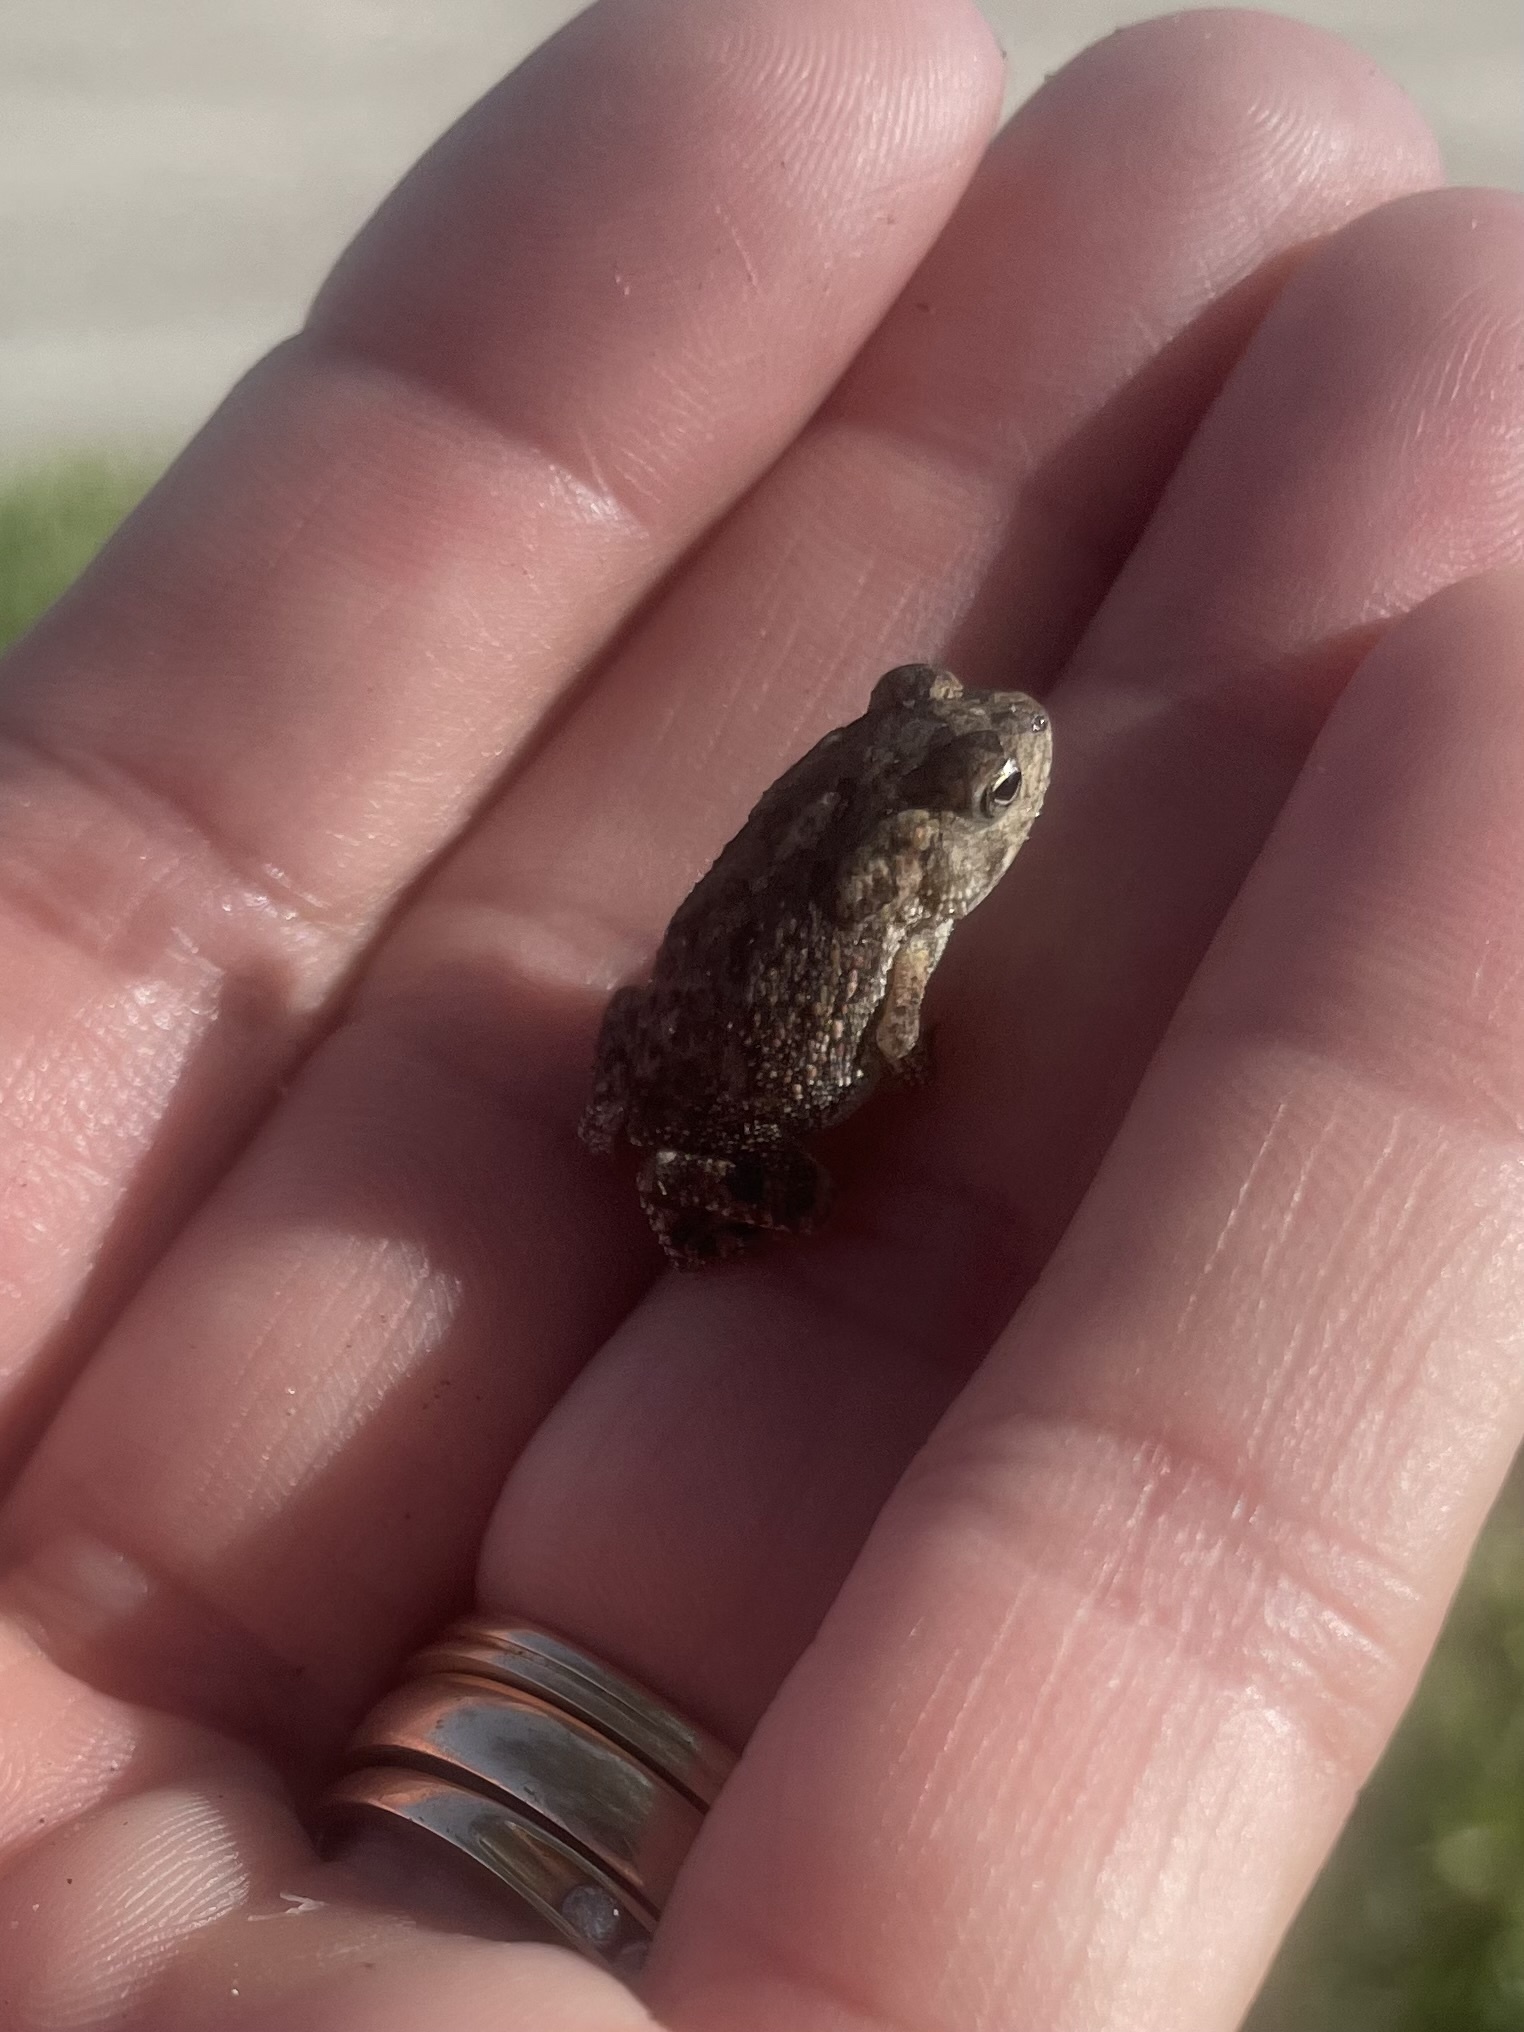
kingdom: Animalia
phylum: Chordata
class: Amphibia
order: Anura
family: Bufonidae
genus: Anaxyrus
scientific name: Anaxyrus terrestris
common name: Southern toad
